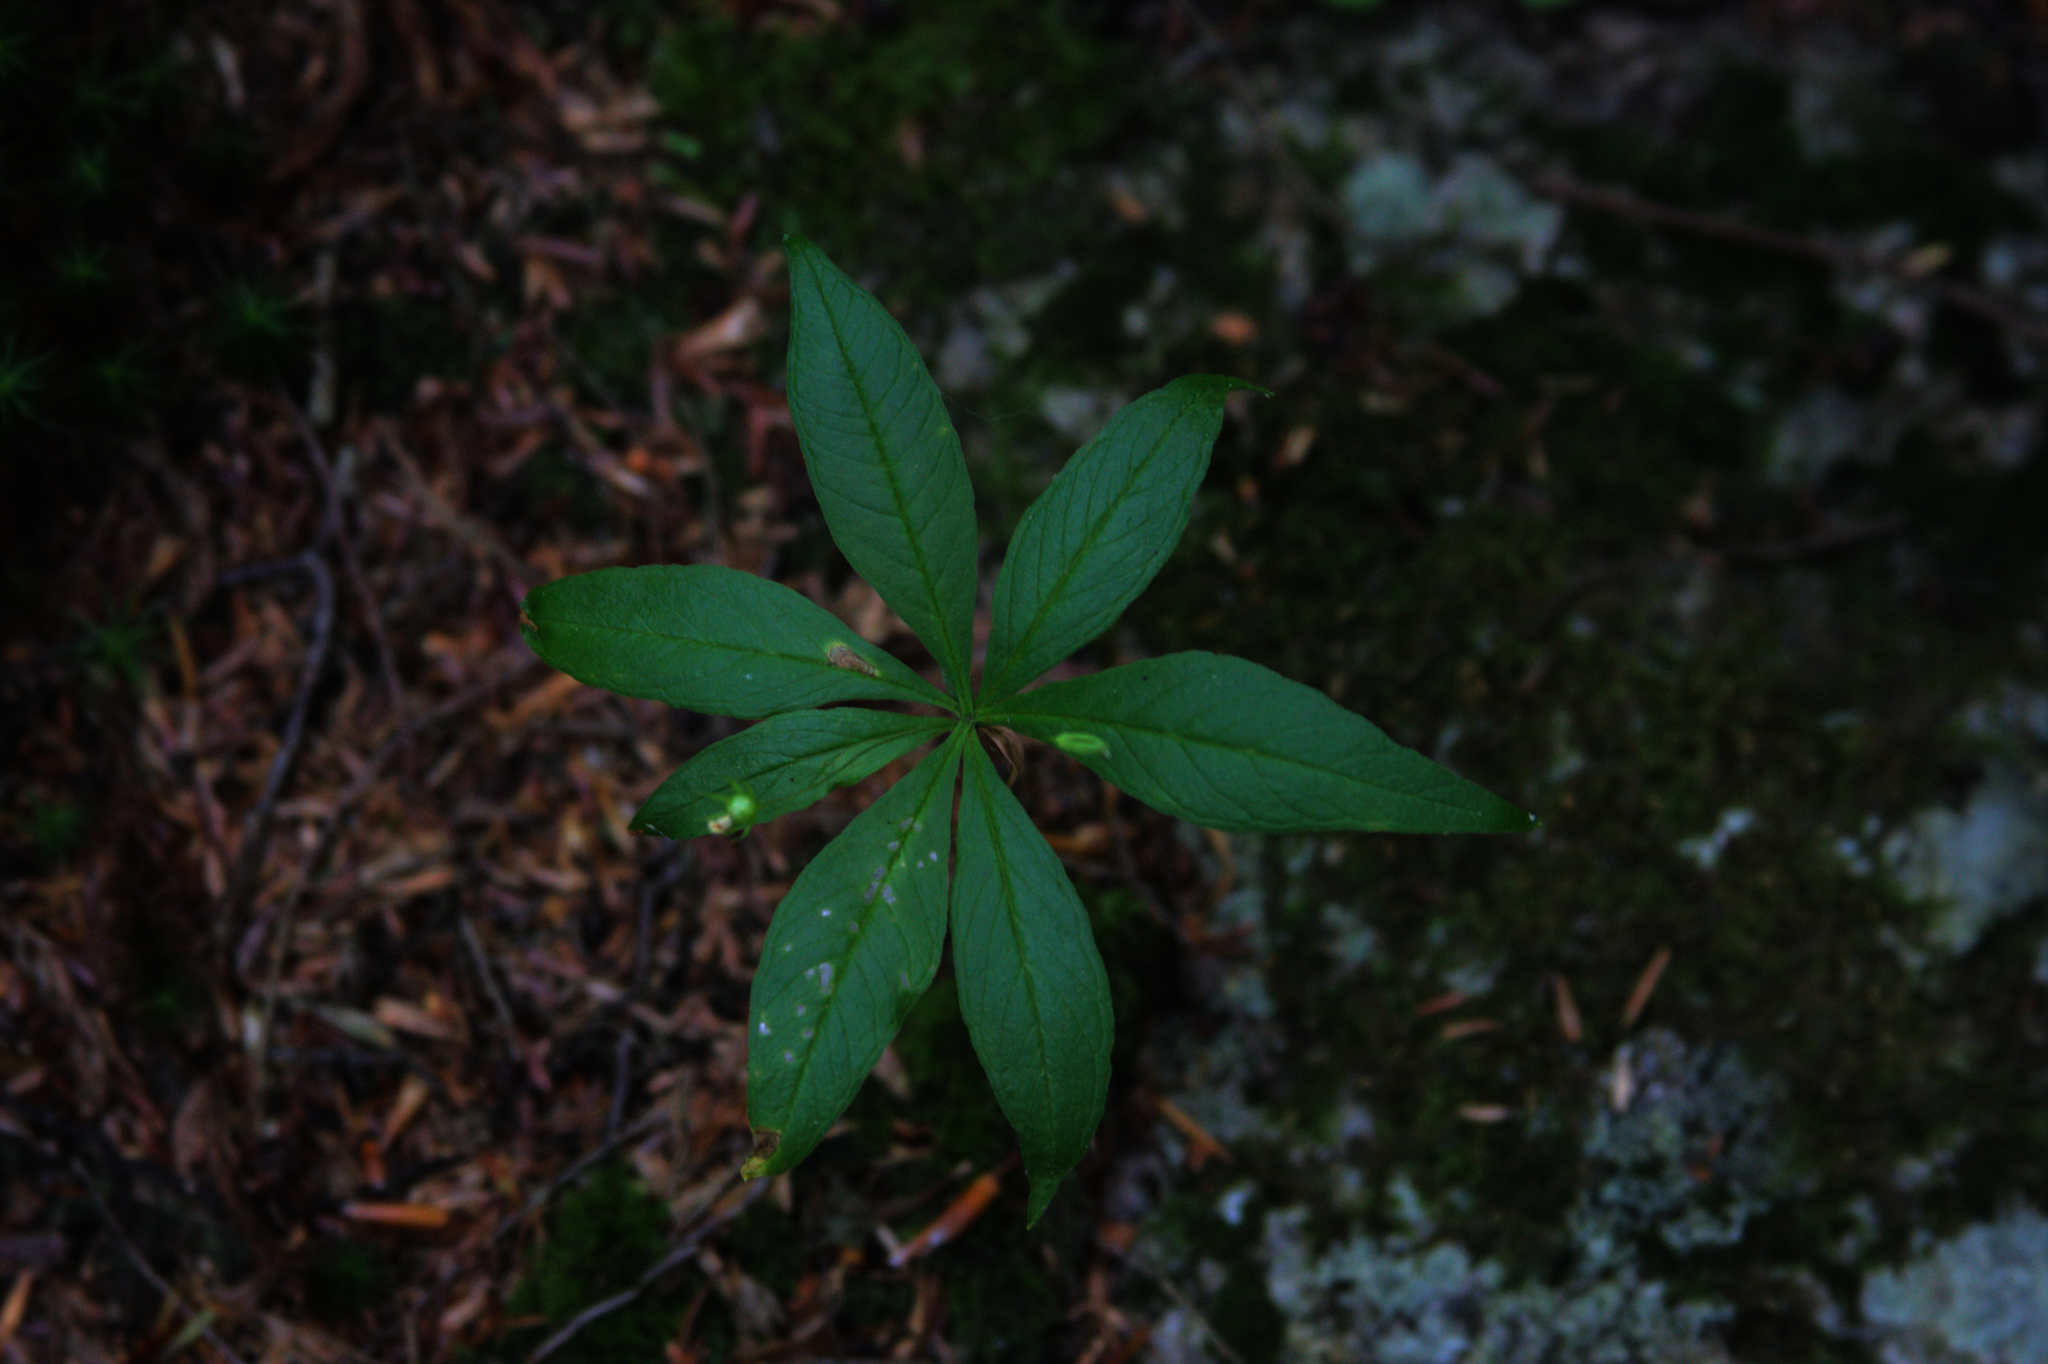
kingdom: Plantae
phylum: Tracheophyta
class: Magnoliopsida
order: Ericales
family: Primulaceae
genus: Lysimachia
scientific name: Lysimachia borealis
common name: American starflower
